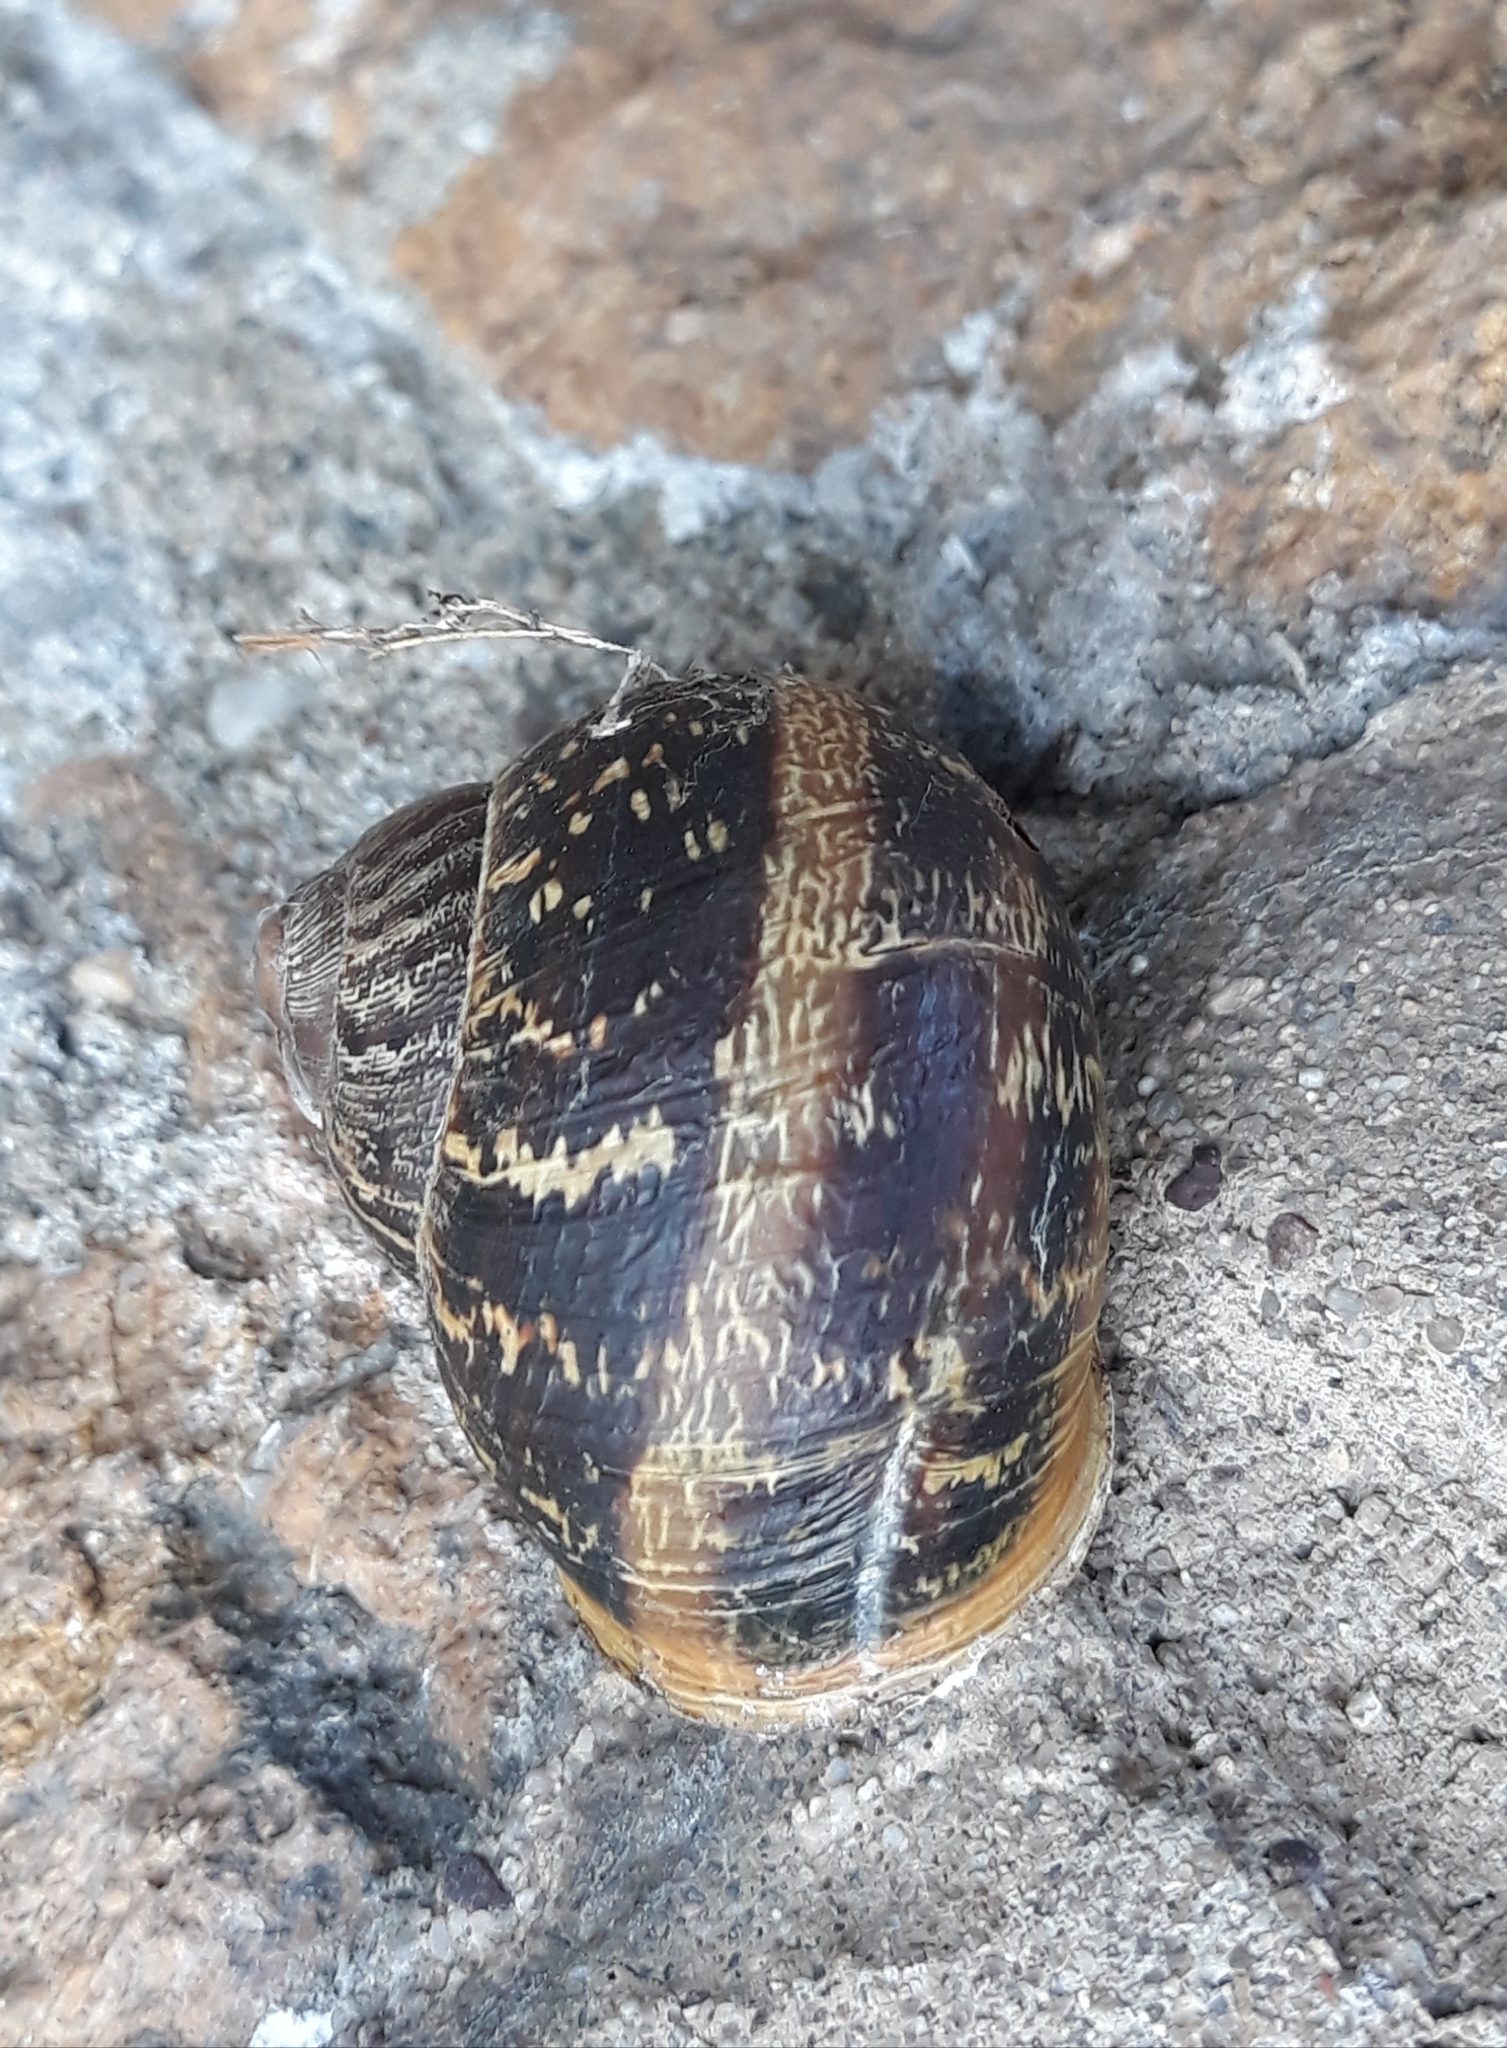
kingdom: Animalia
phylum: Mollusca
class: Gastropoda
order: Stylommatophora
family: Helicidae
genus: Cornu
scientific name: Cornu aspersum
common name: Brown garden snail
